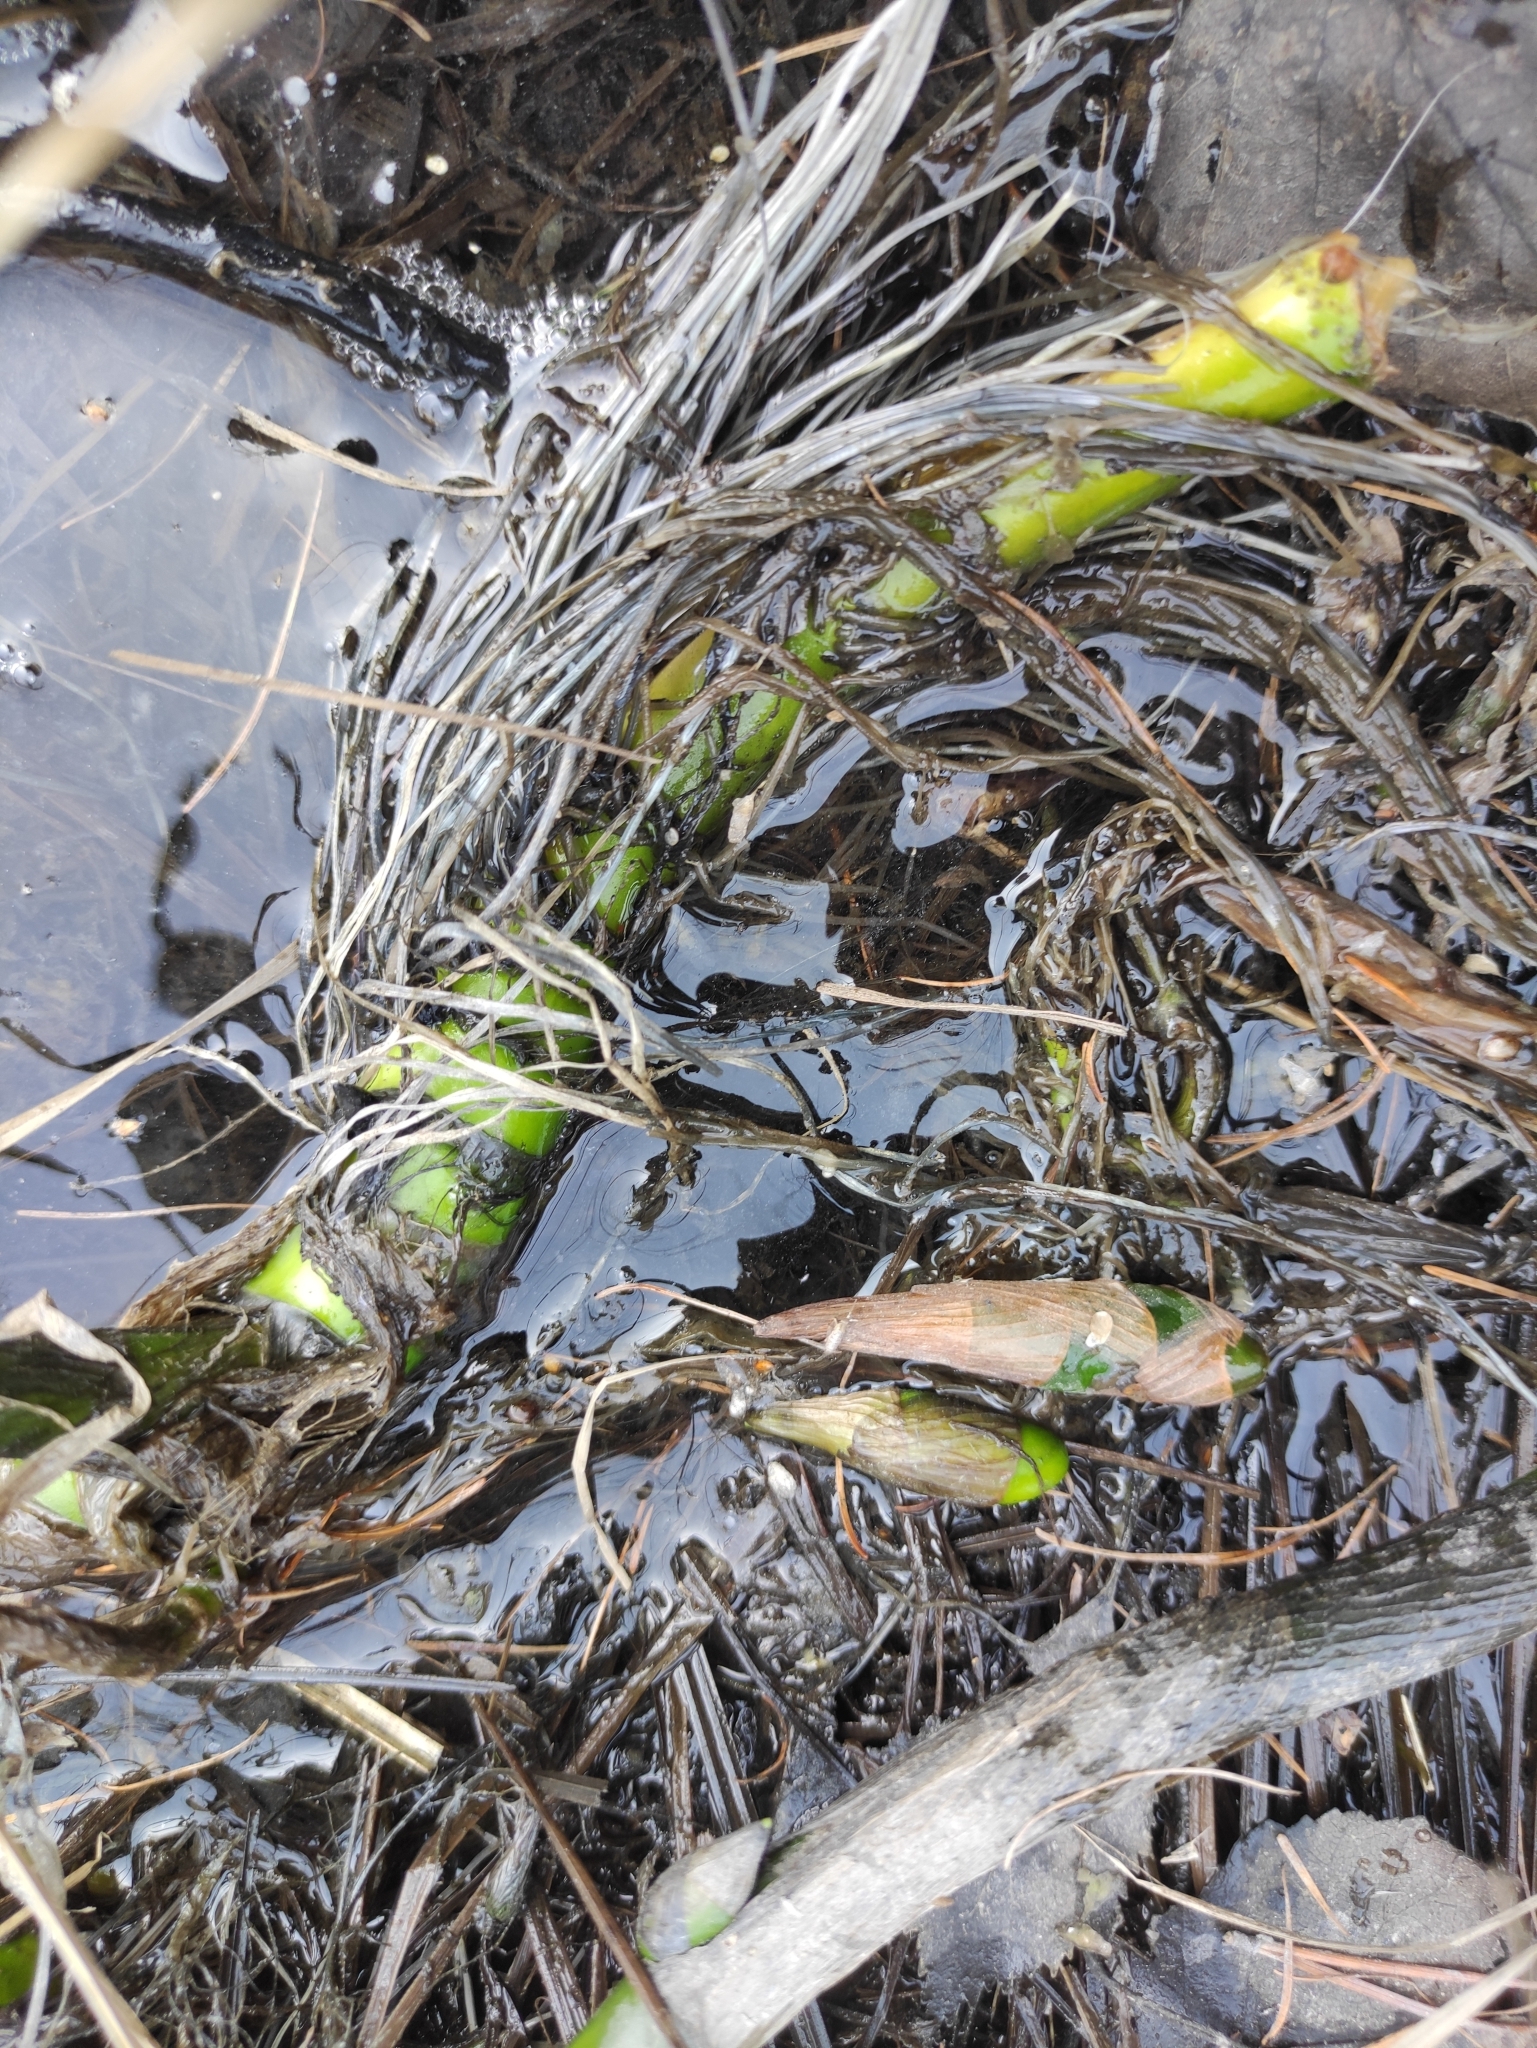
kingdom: Plantae
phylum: Tracheophyta
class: Liliopsida
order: Alismatales
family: Araceae
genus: Calla
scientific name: Calla palustris
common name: Bog arum
